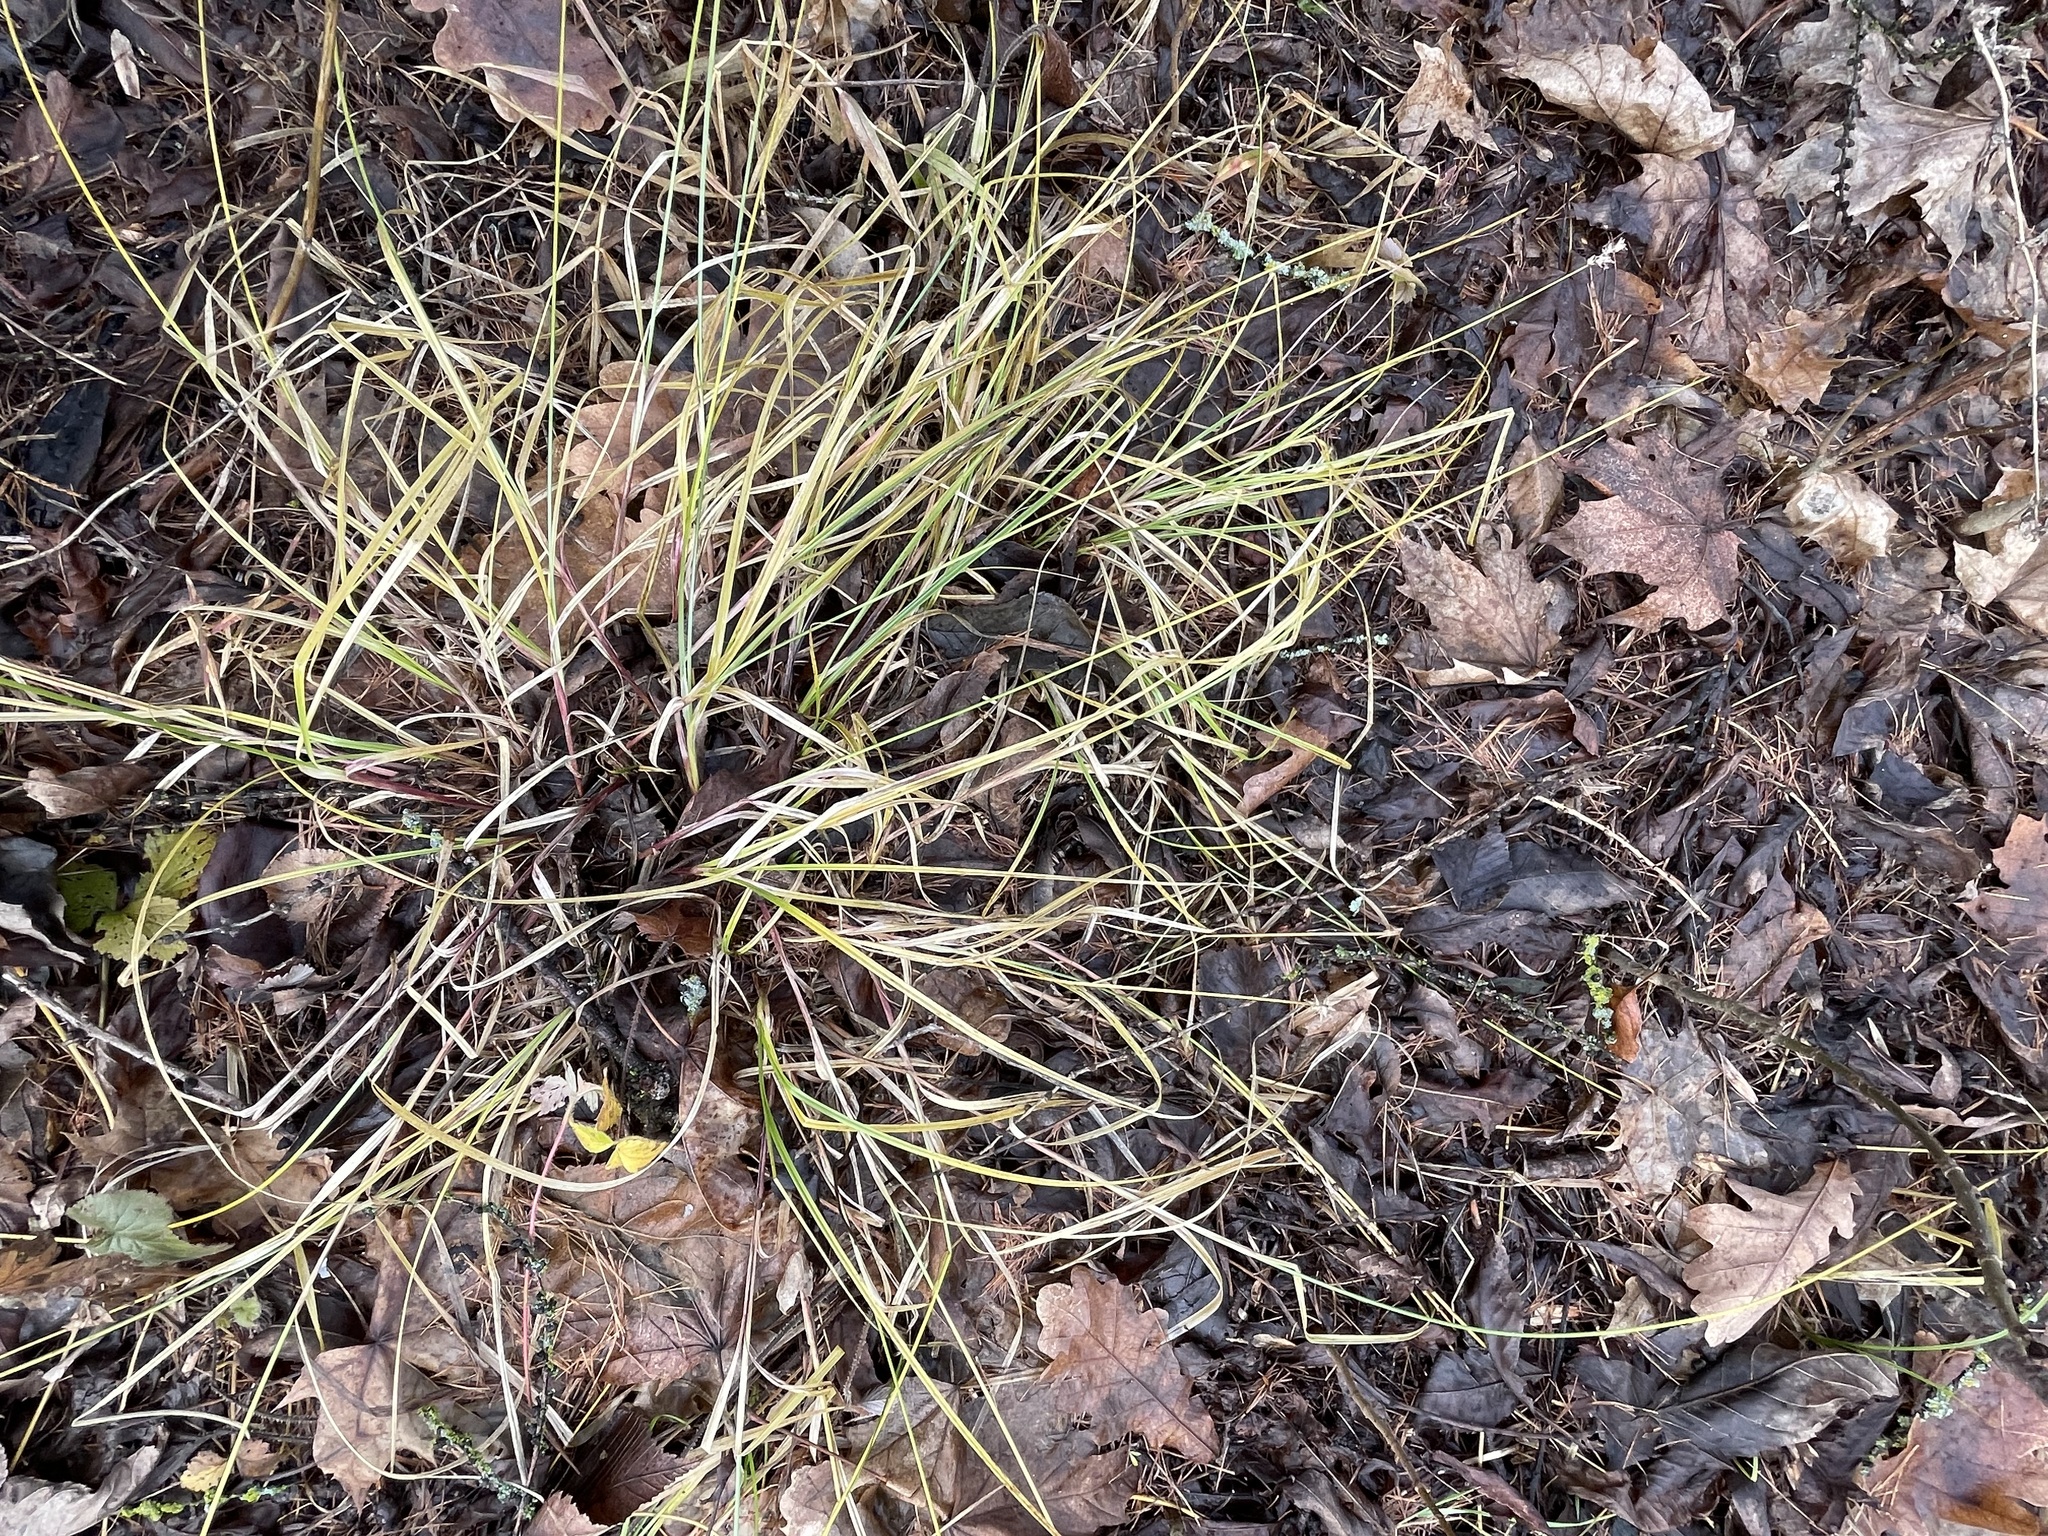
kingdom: Plantae
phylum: Tracheophyta
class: Liliopsida
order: Poales
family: Cyperaceae
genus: Carex
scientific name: Carex spicata
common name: Spiked sedge
